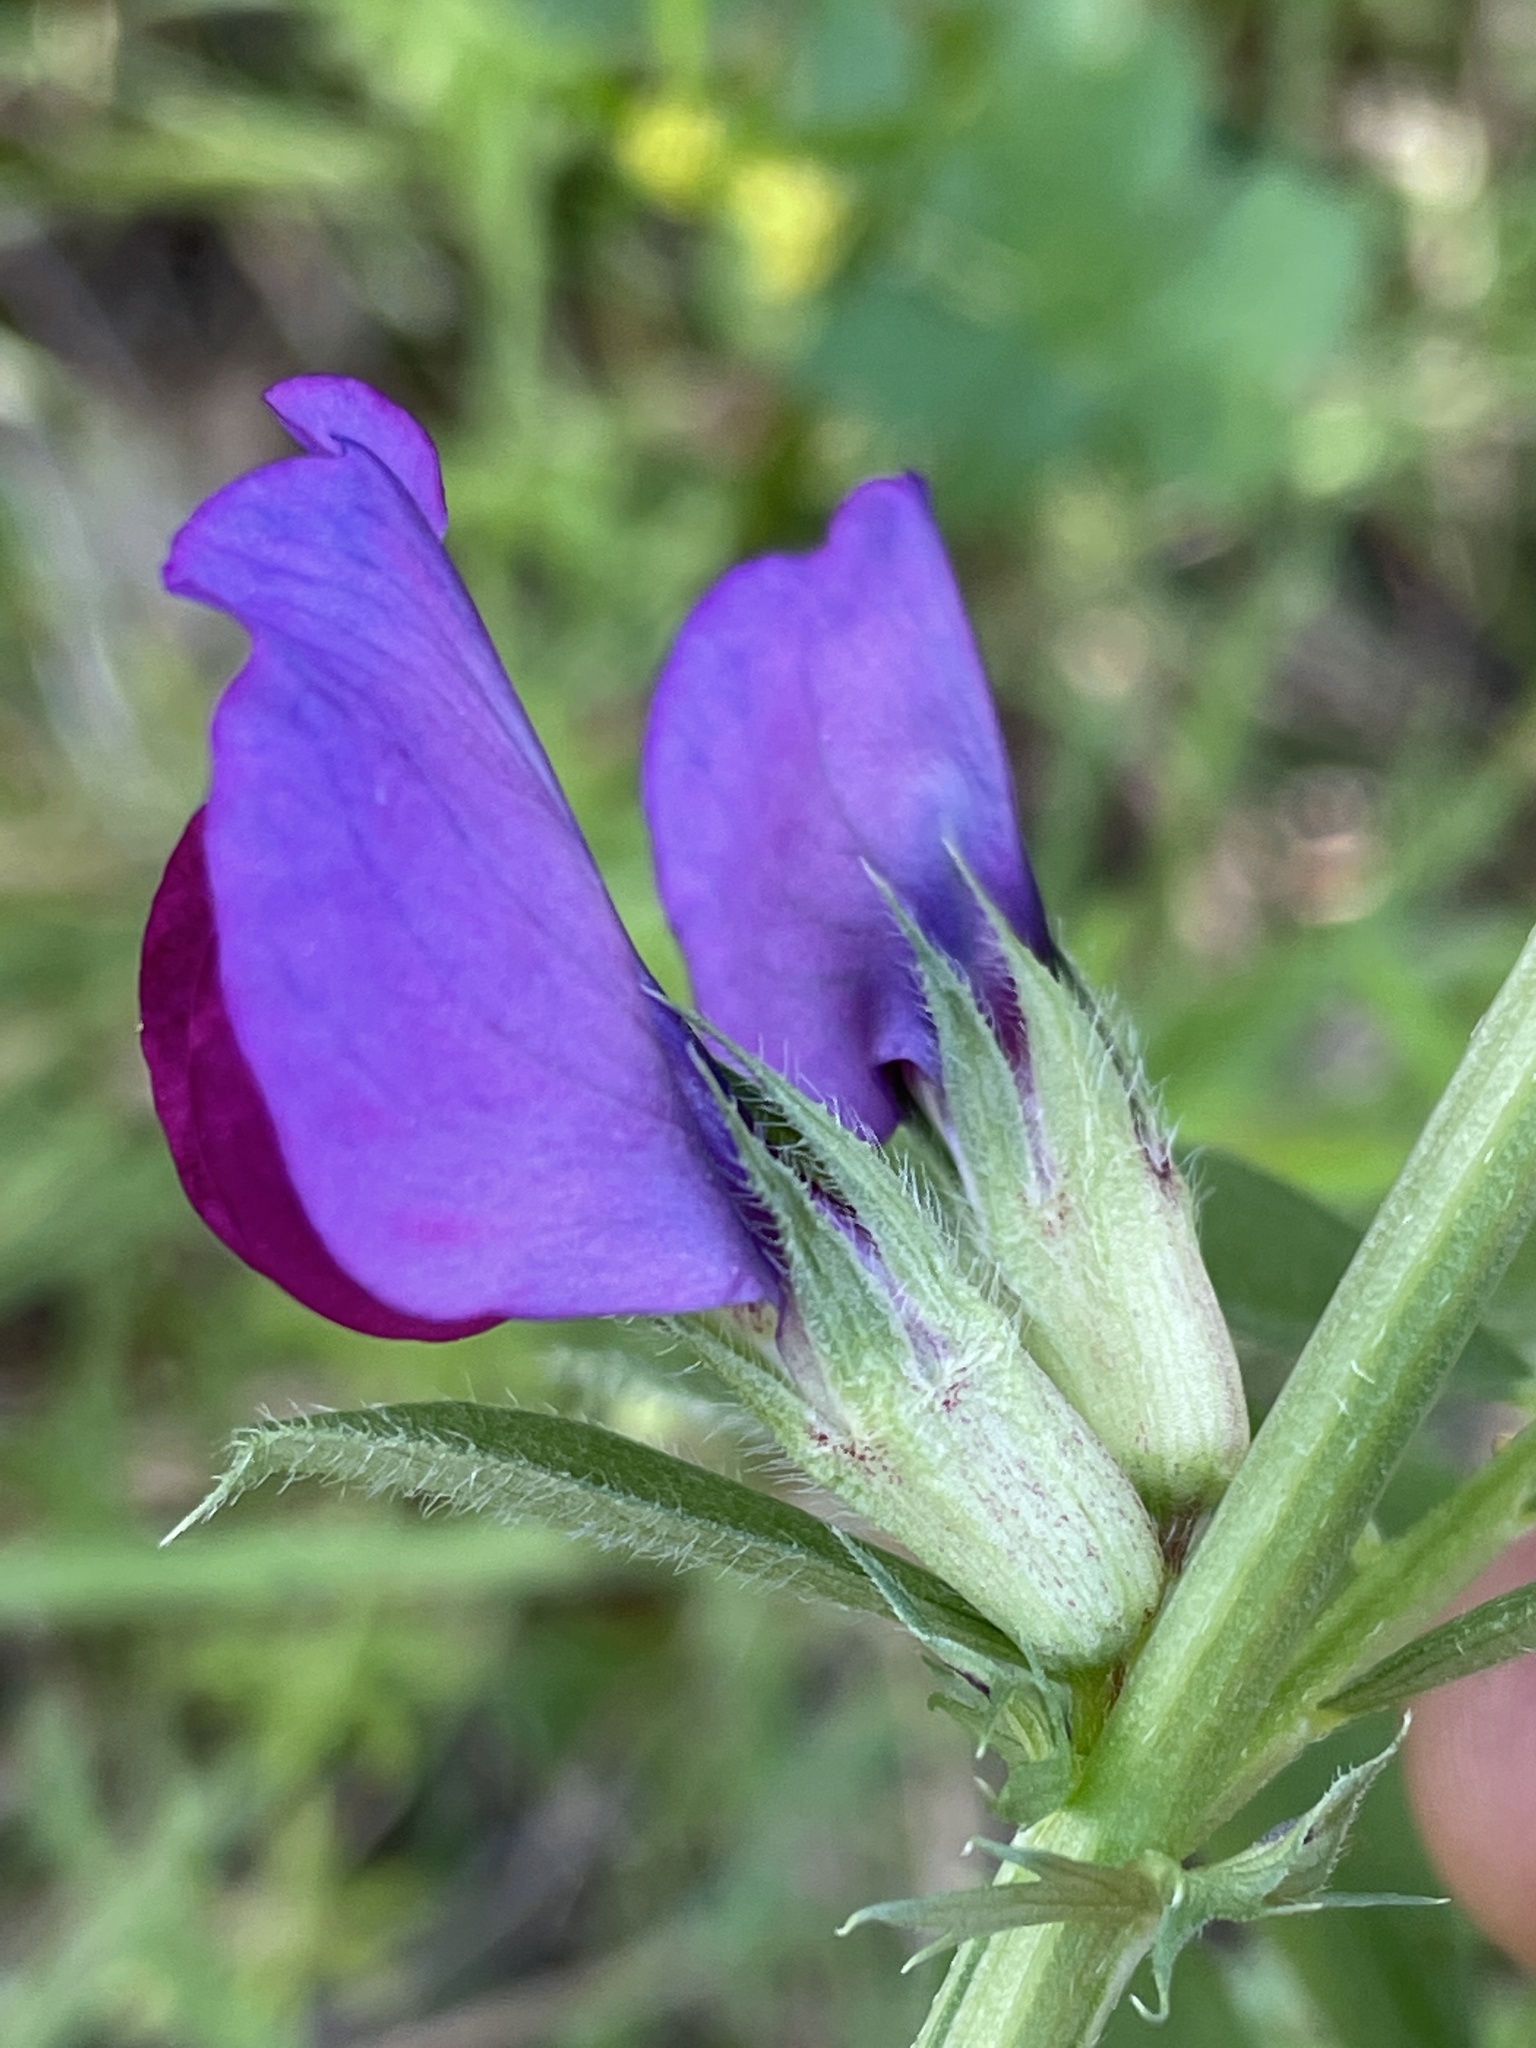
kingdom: Plantae
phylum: Tracheophyta
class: Magnoliopsida
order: Fabales
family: Fabaceae
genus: Vicia
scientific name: Vicia sativa
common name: Garden vetch
